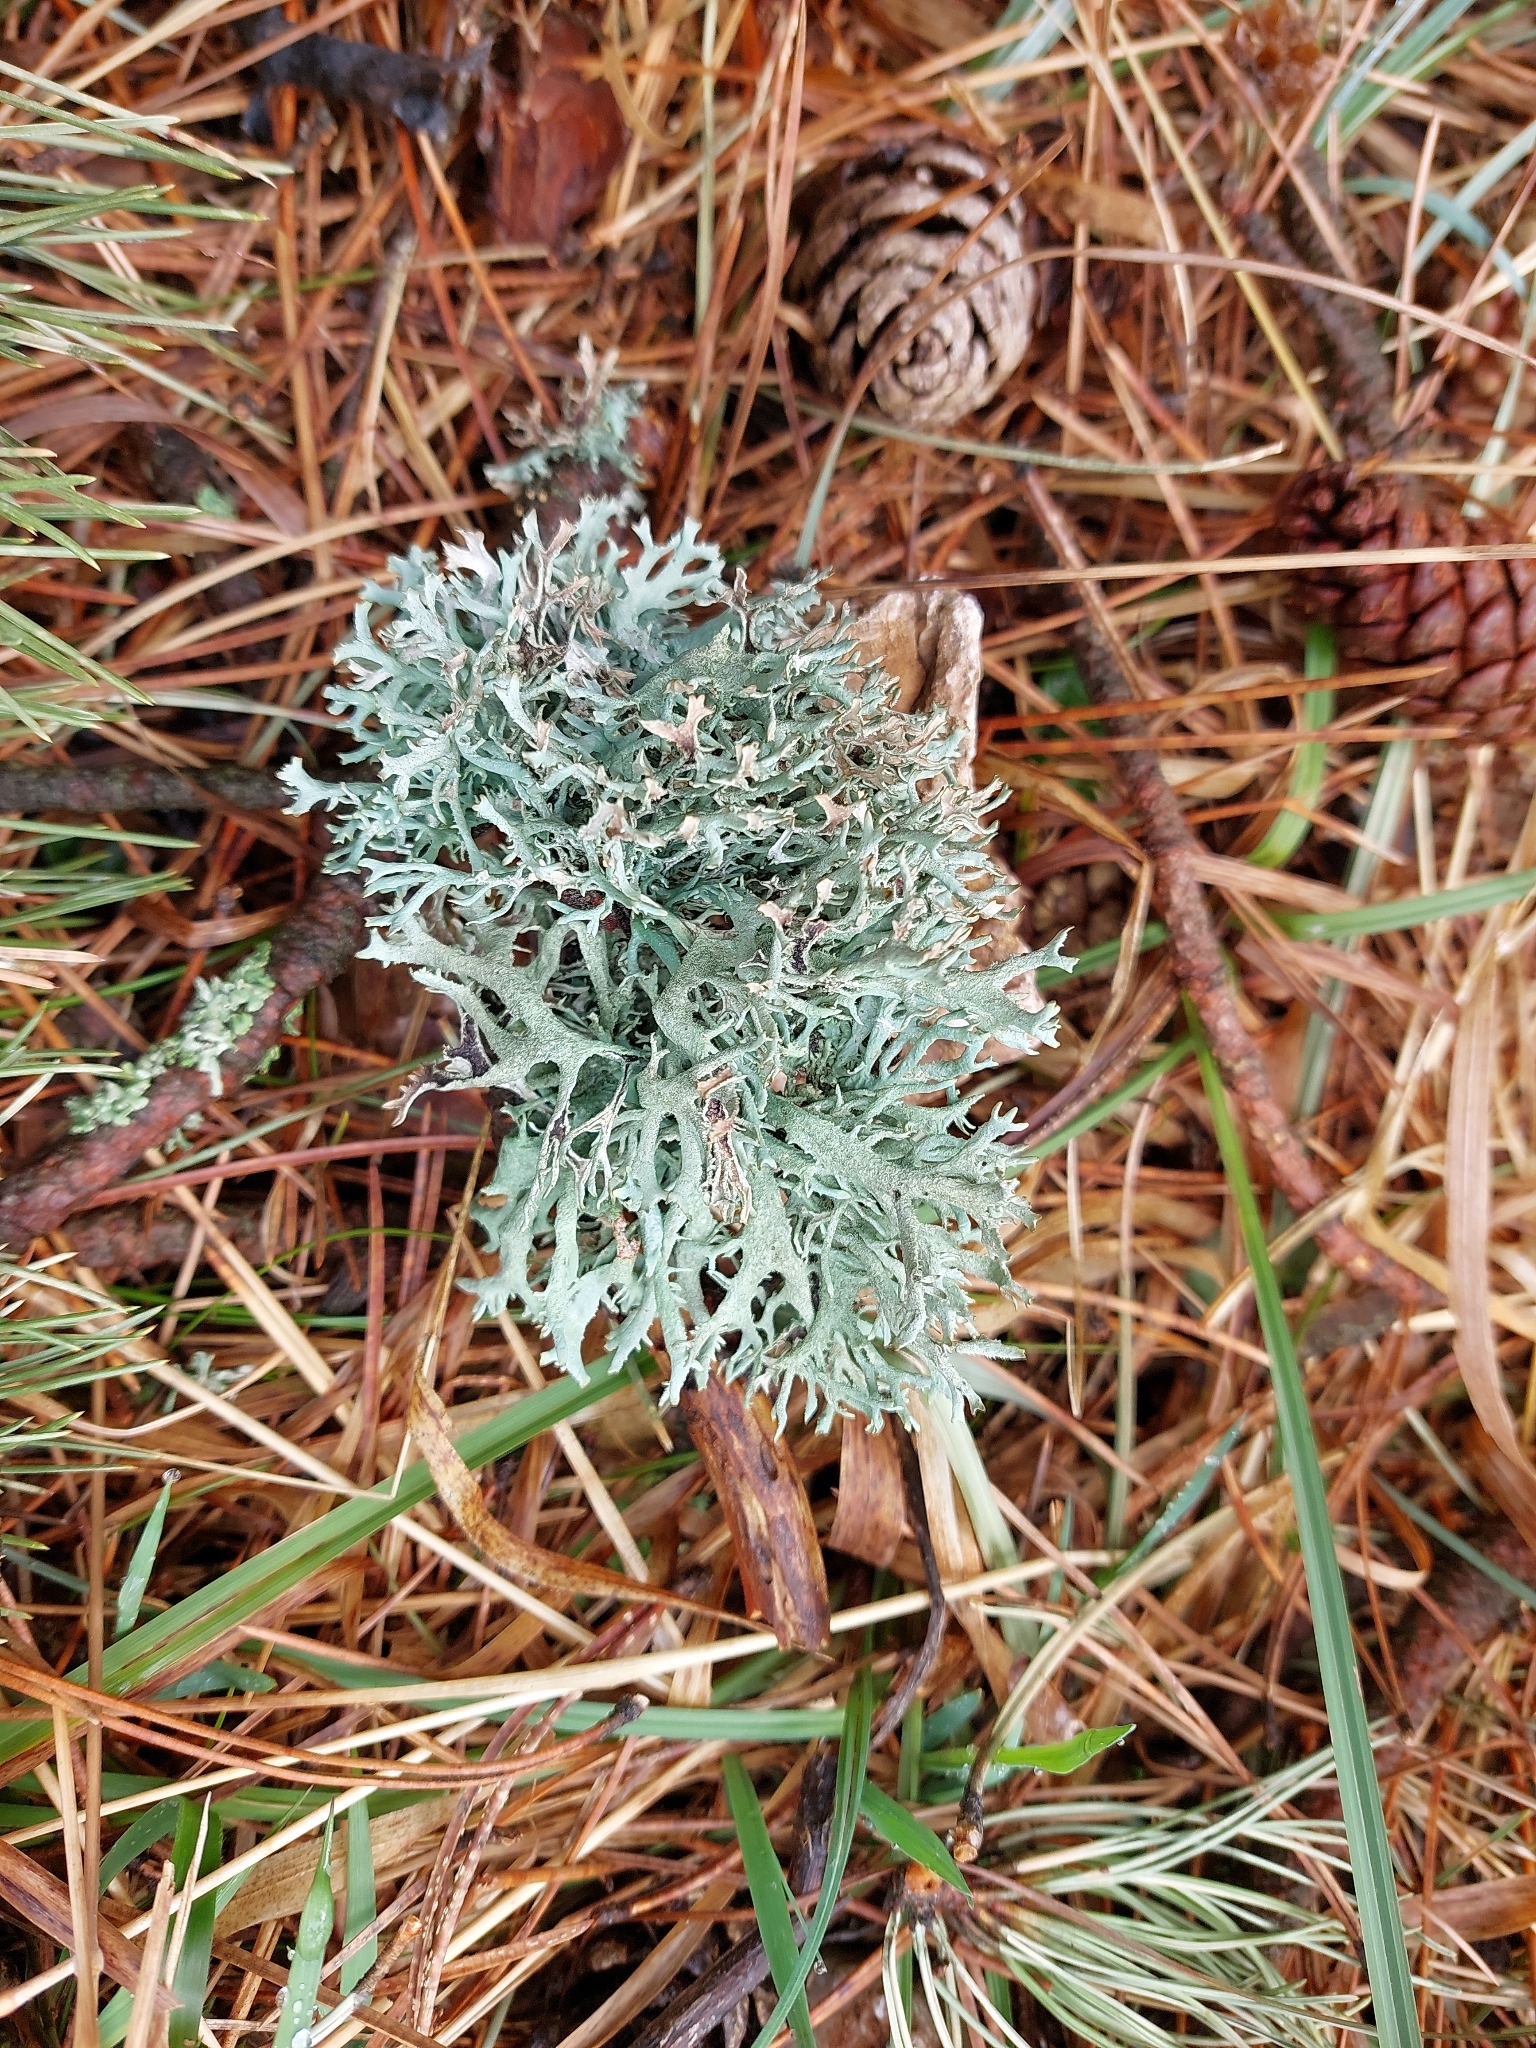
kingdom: Fungi
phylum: Ascomycota
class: Lecanoromycetes
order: Lecanorales
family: Parmeliaceae
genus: Pseudevernia
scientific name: Pseudevernia furfuracea
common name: Tree moss
